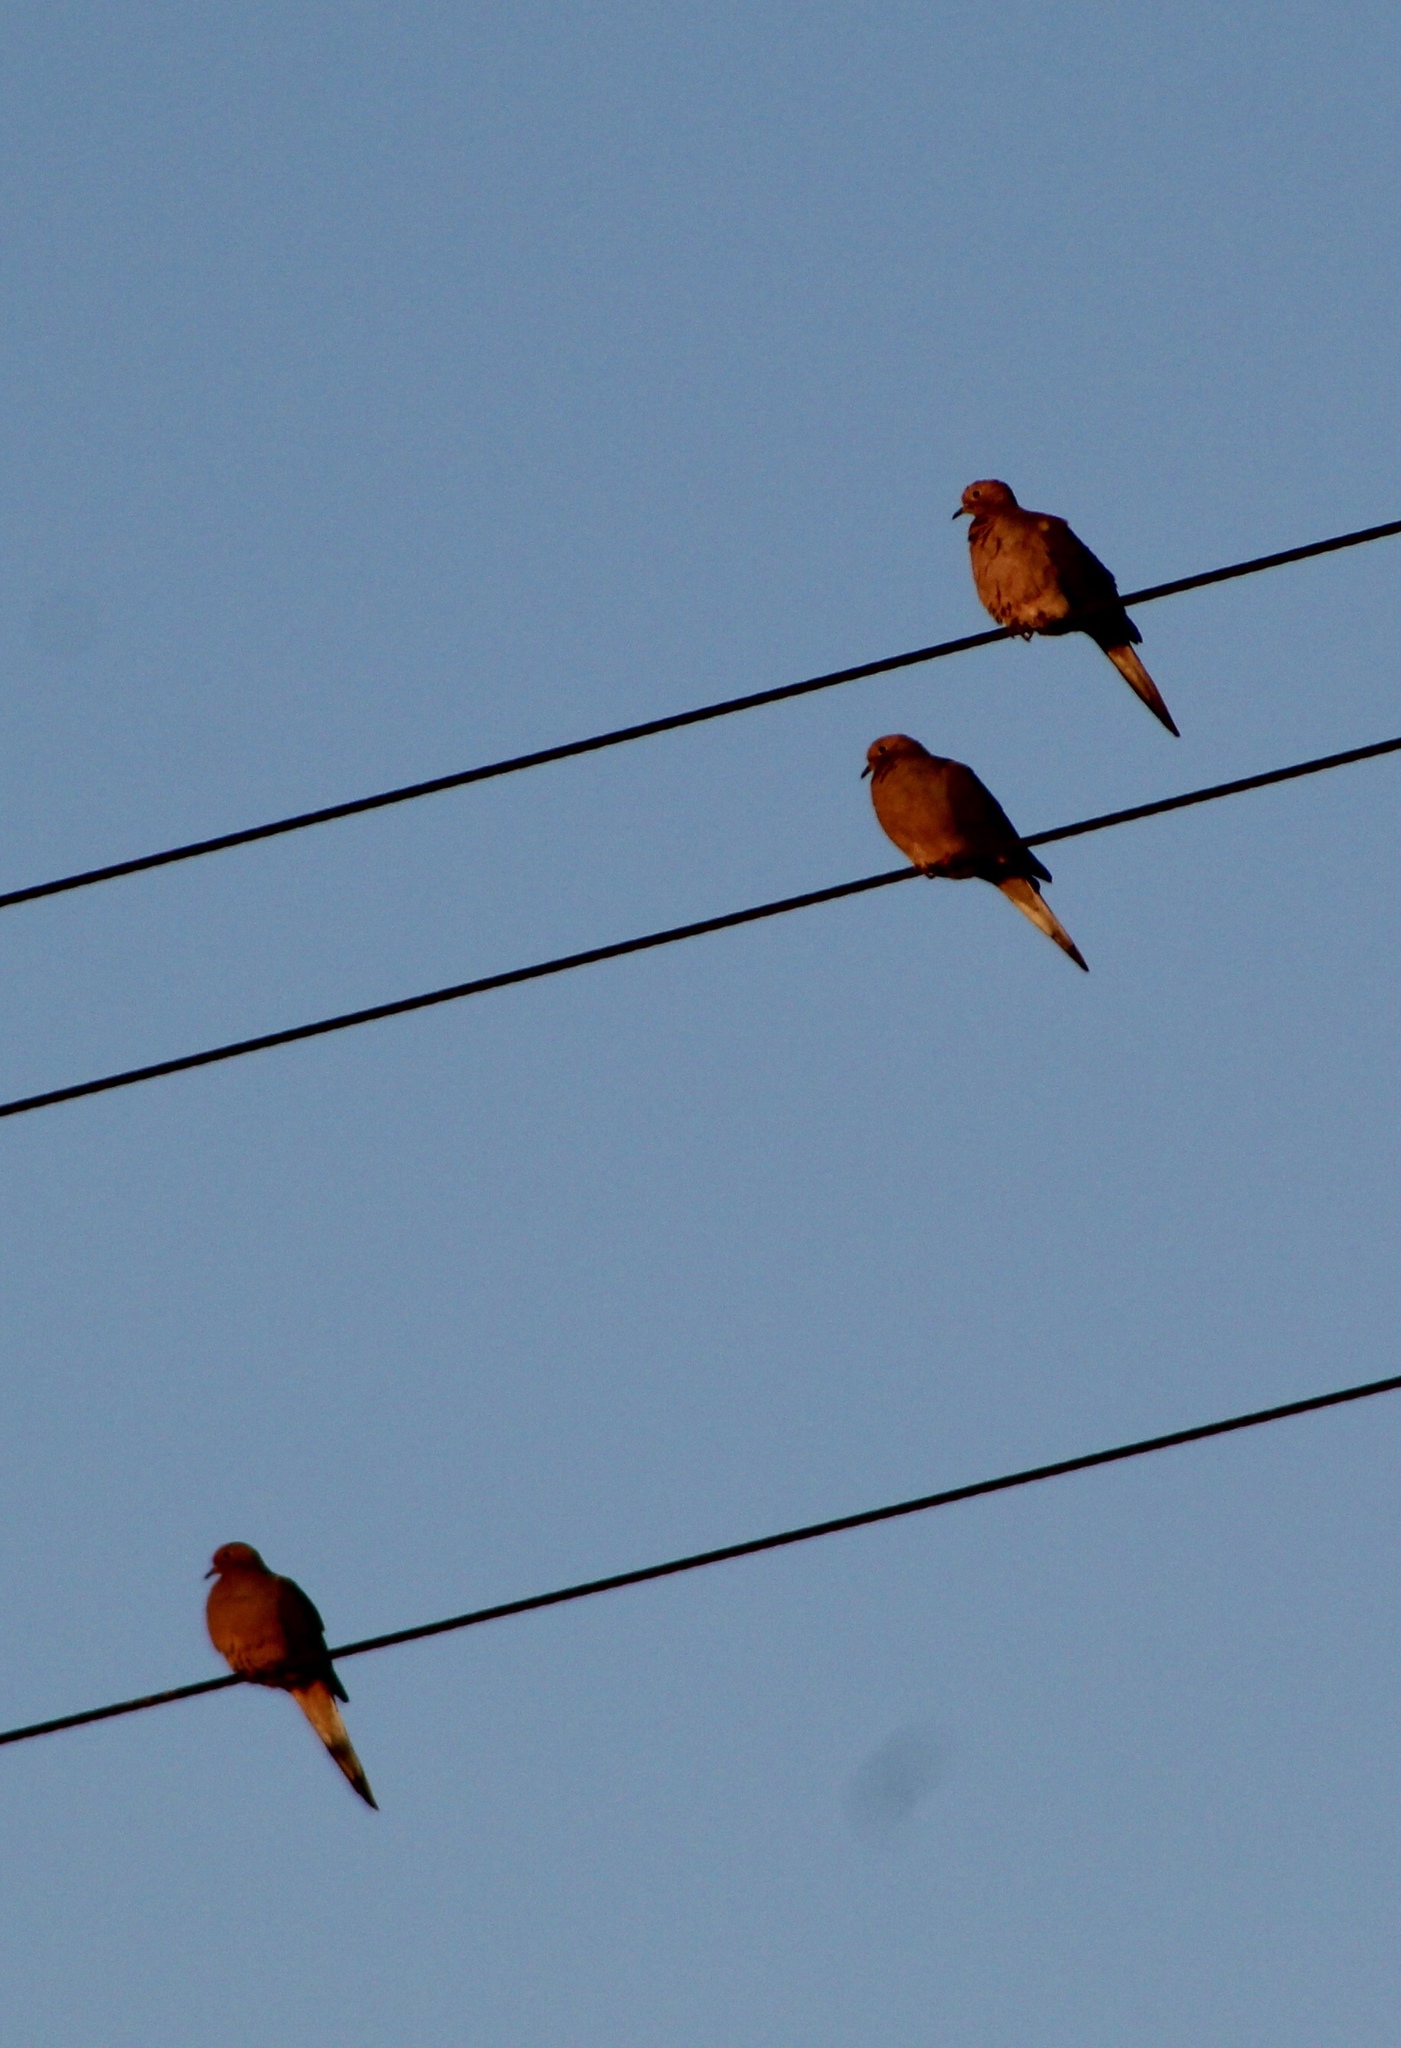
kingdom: Animalia
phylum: Chordata
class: Aves
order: Columbiformes
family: Columbidae
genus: Zenaida
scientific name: Zenaida macroura
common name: Mourning dove
